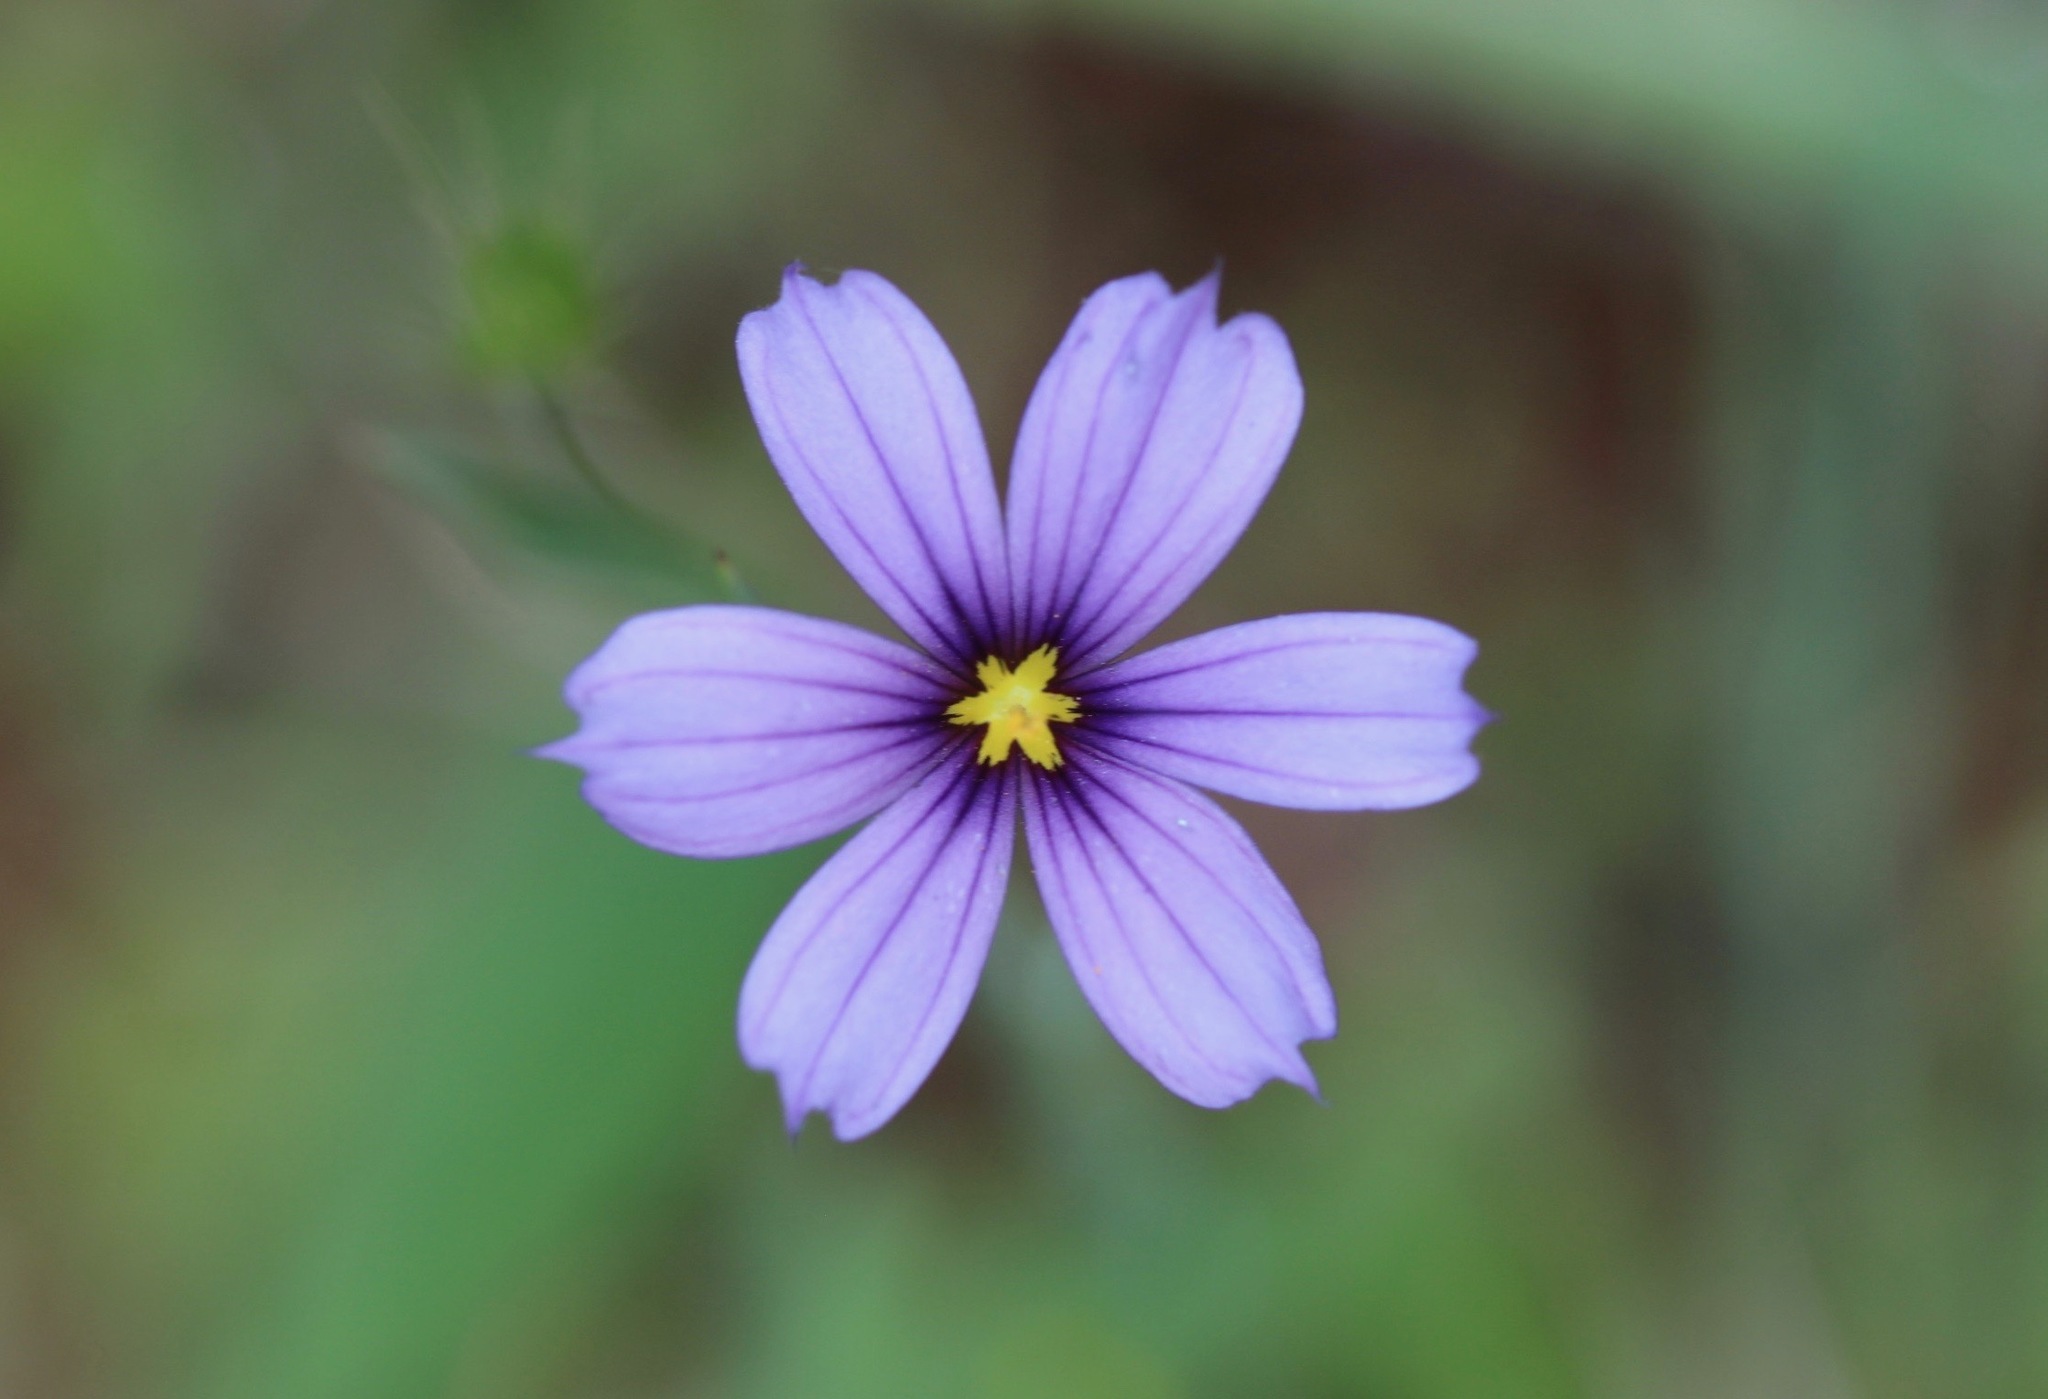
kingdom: Plantae
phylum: Tracheophyta
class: Liliopsida
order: Asparagales
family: Iridaceae
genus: Sisyrinchium
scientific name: Sisyrinchium bellum
